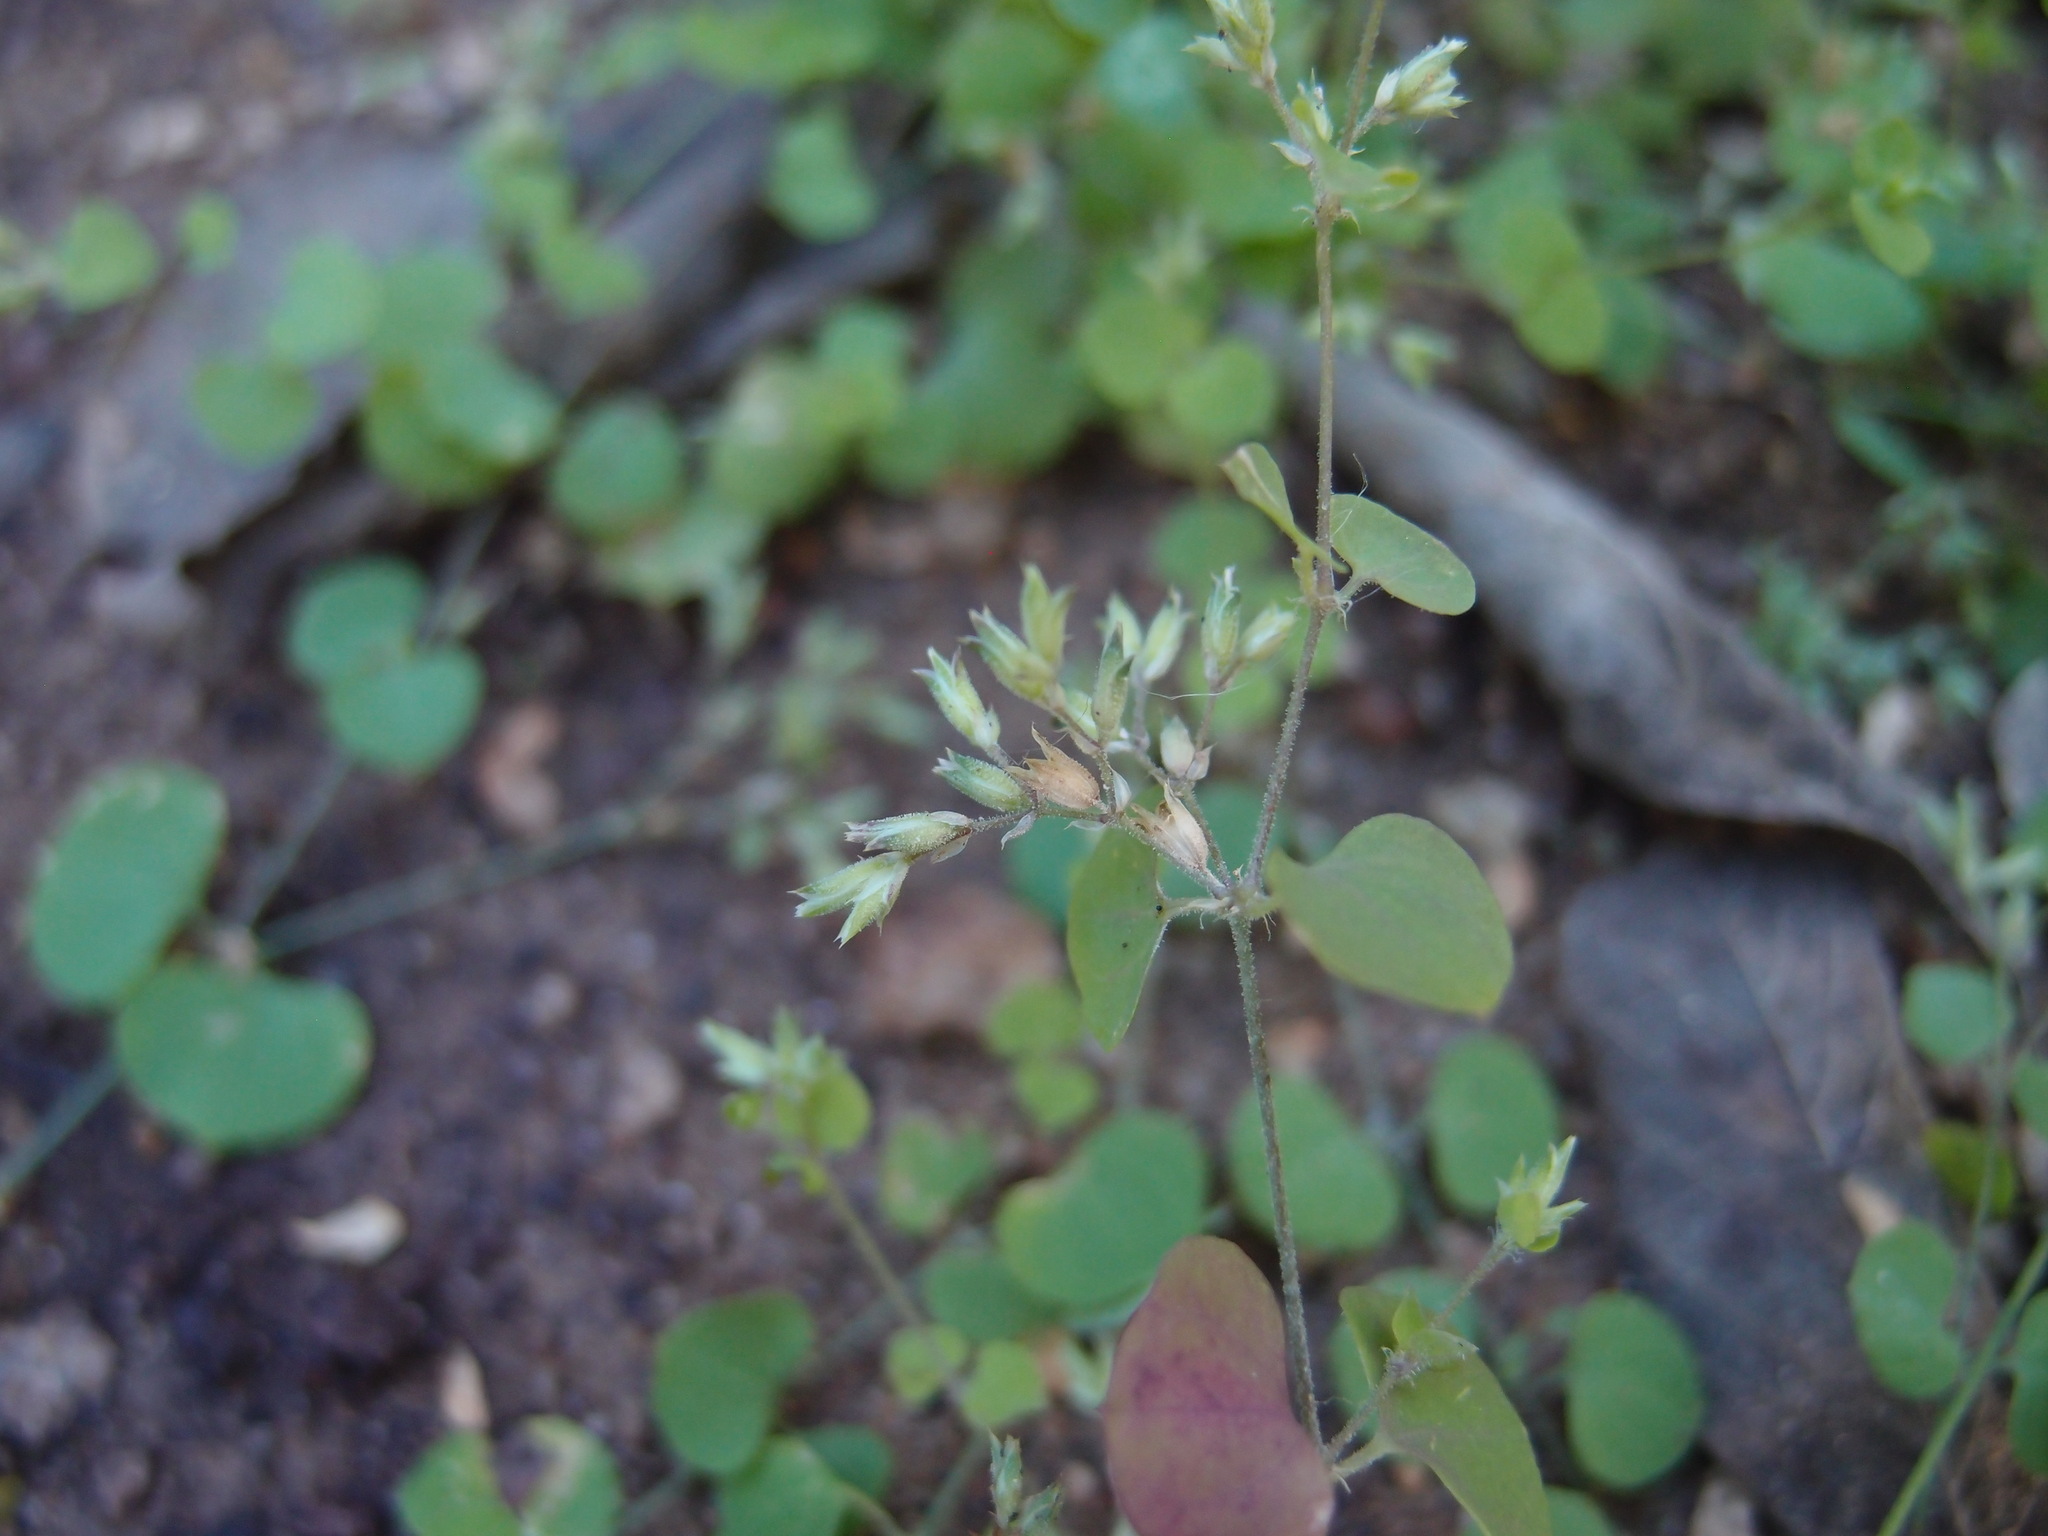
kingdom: Plantae
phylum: Tracheophyta
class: Magnoliopsida
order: Caryophyllales
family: Caryophyllaceae
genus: Drymaria
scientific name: Drymaria glandulosa
